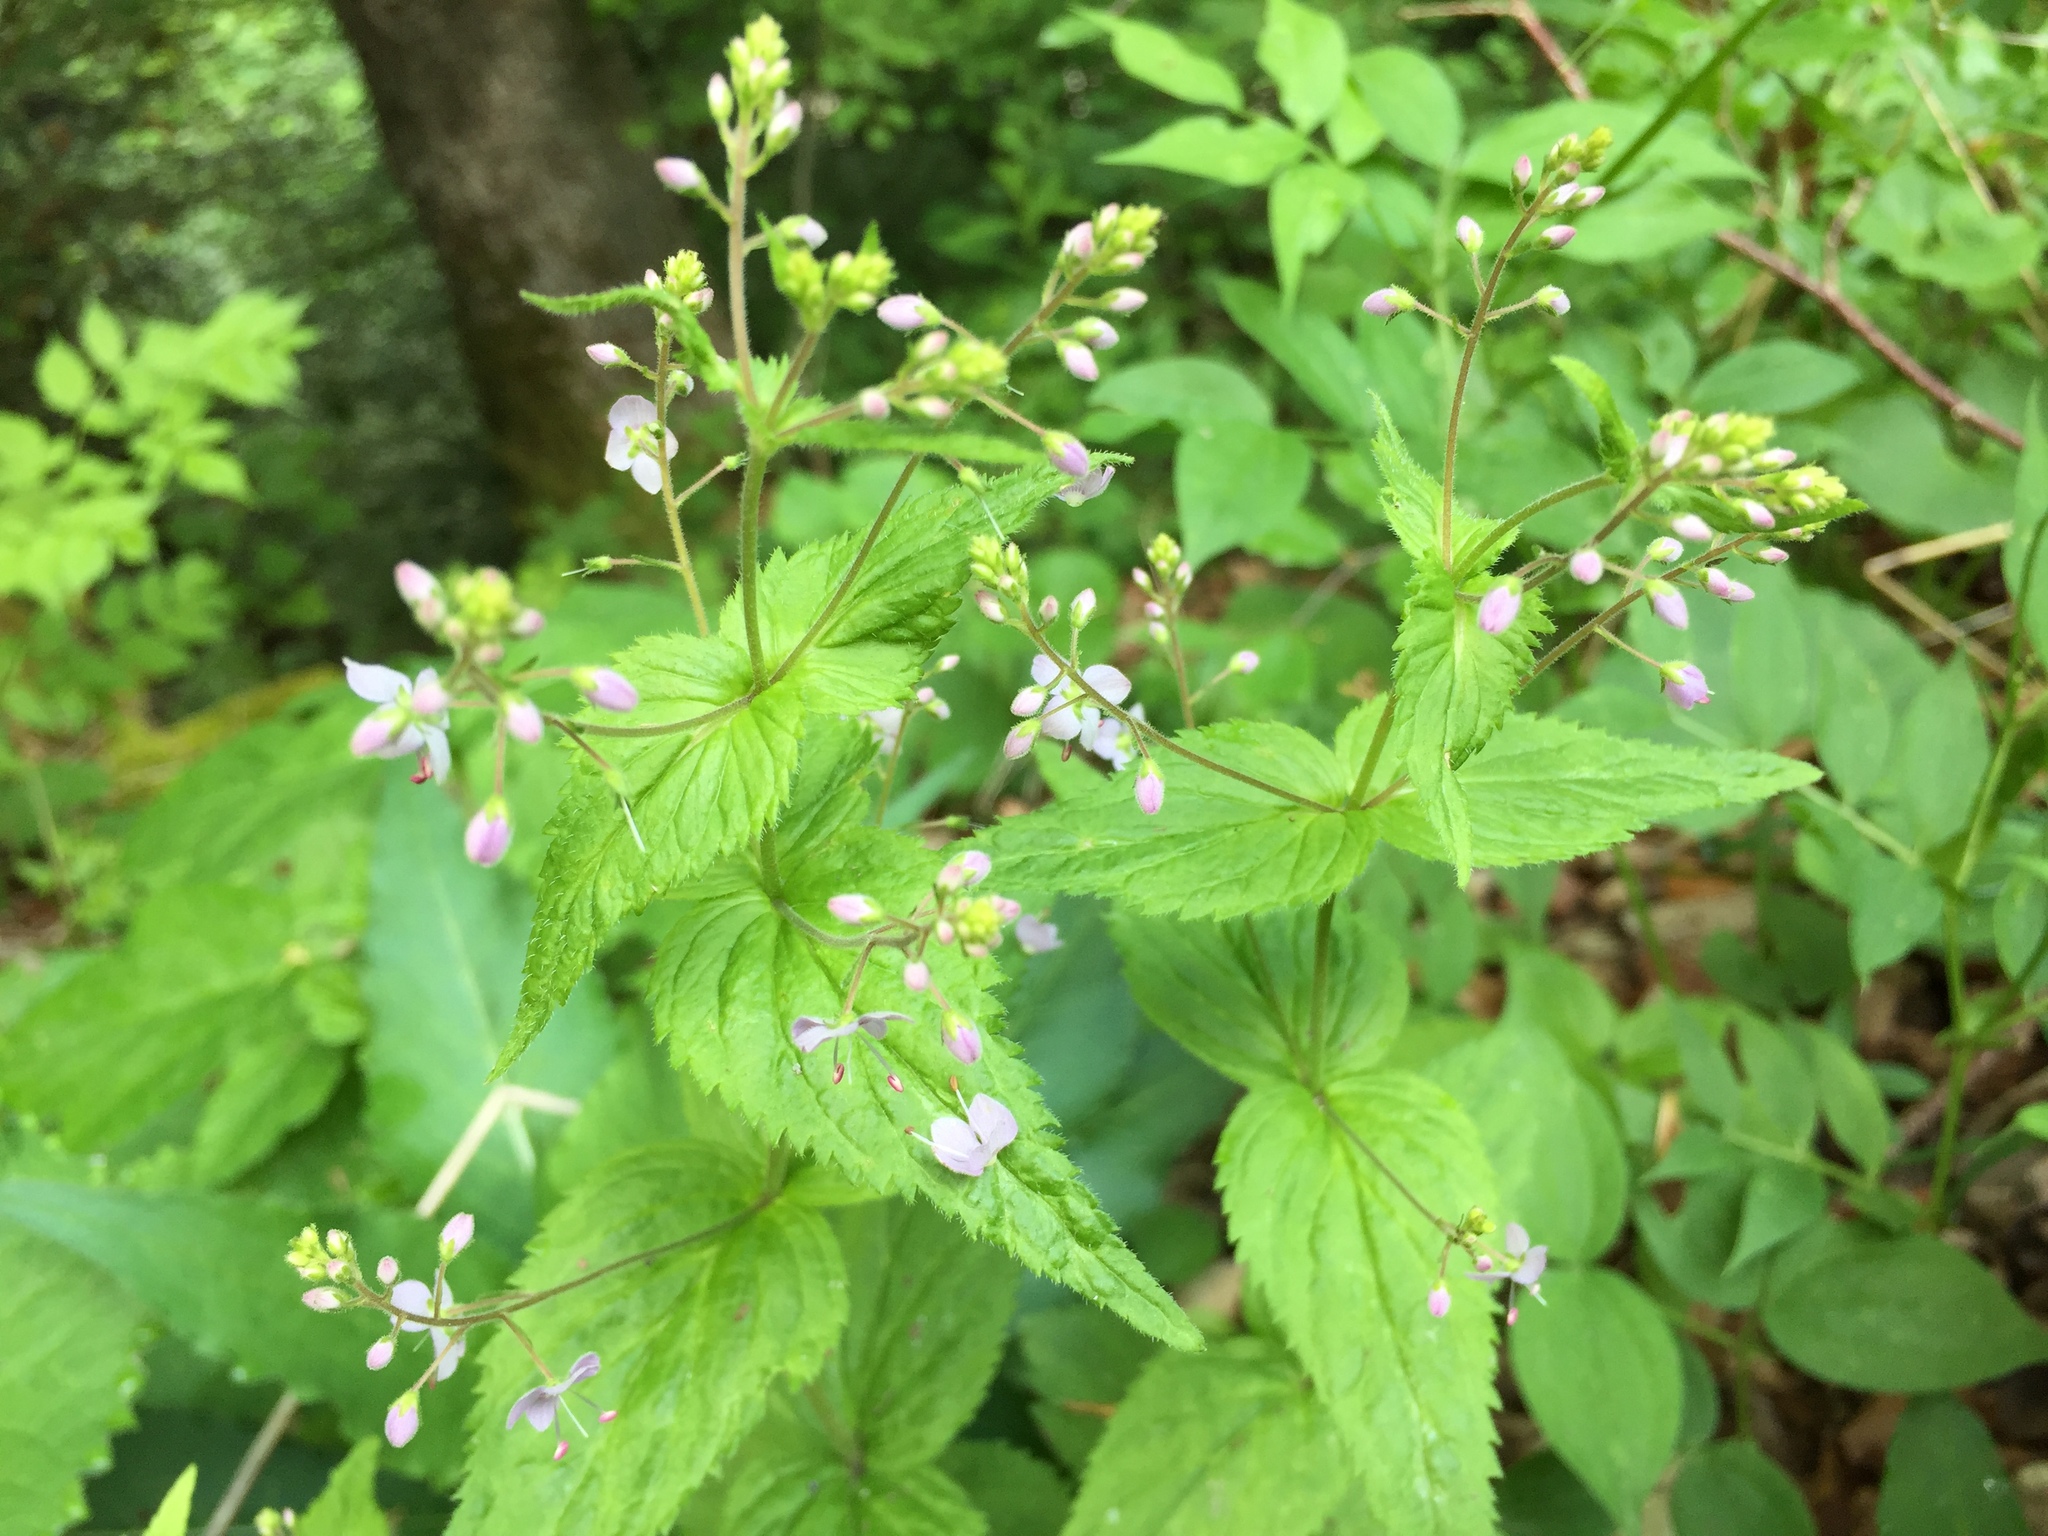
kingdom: Plantae
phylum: Tracheophyta
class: Magnoliopsida
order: Lamiales
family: Plantaginaceae
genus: Veronica
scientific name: Veronica urticifolia
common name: Nettle-leaf speedwell
